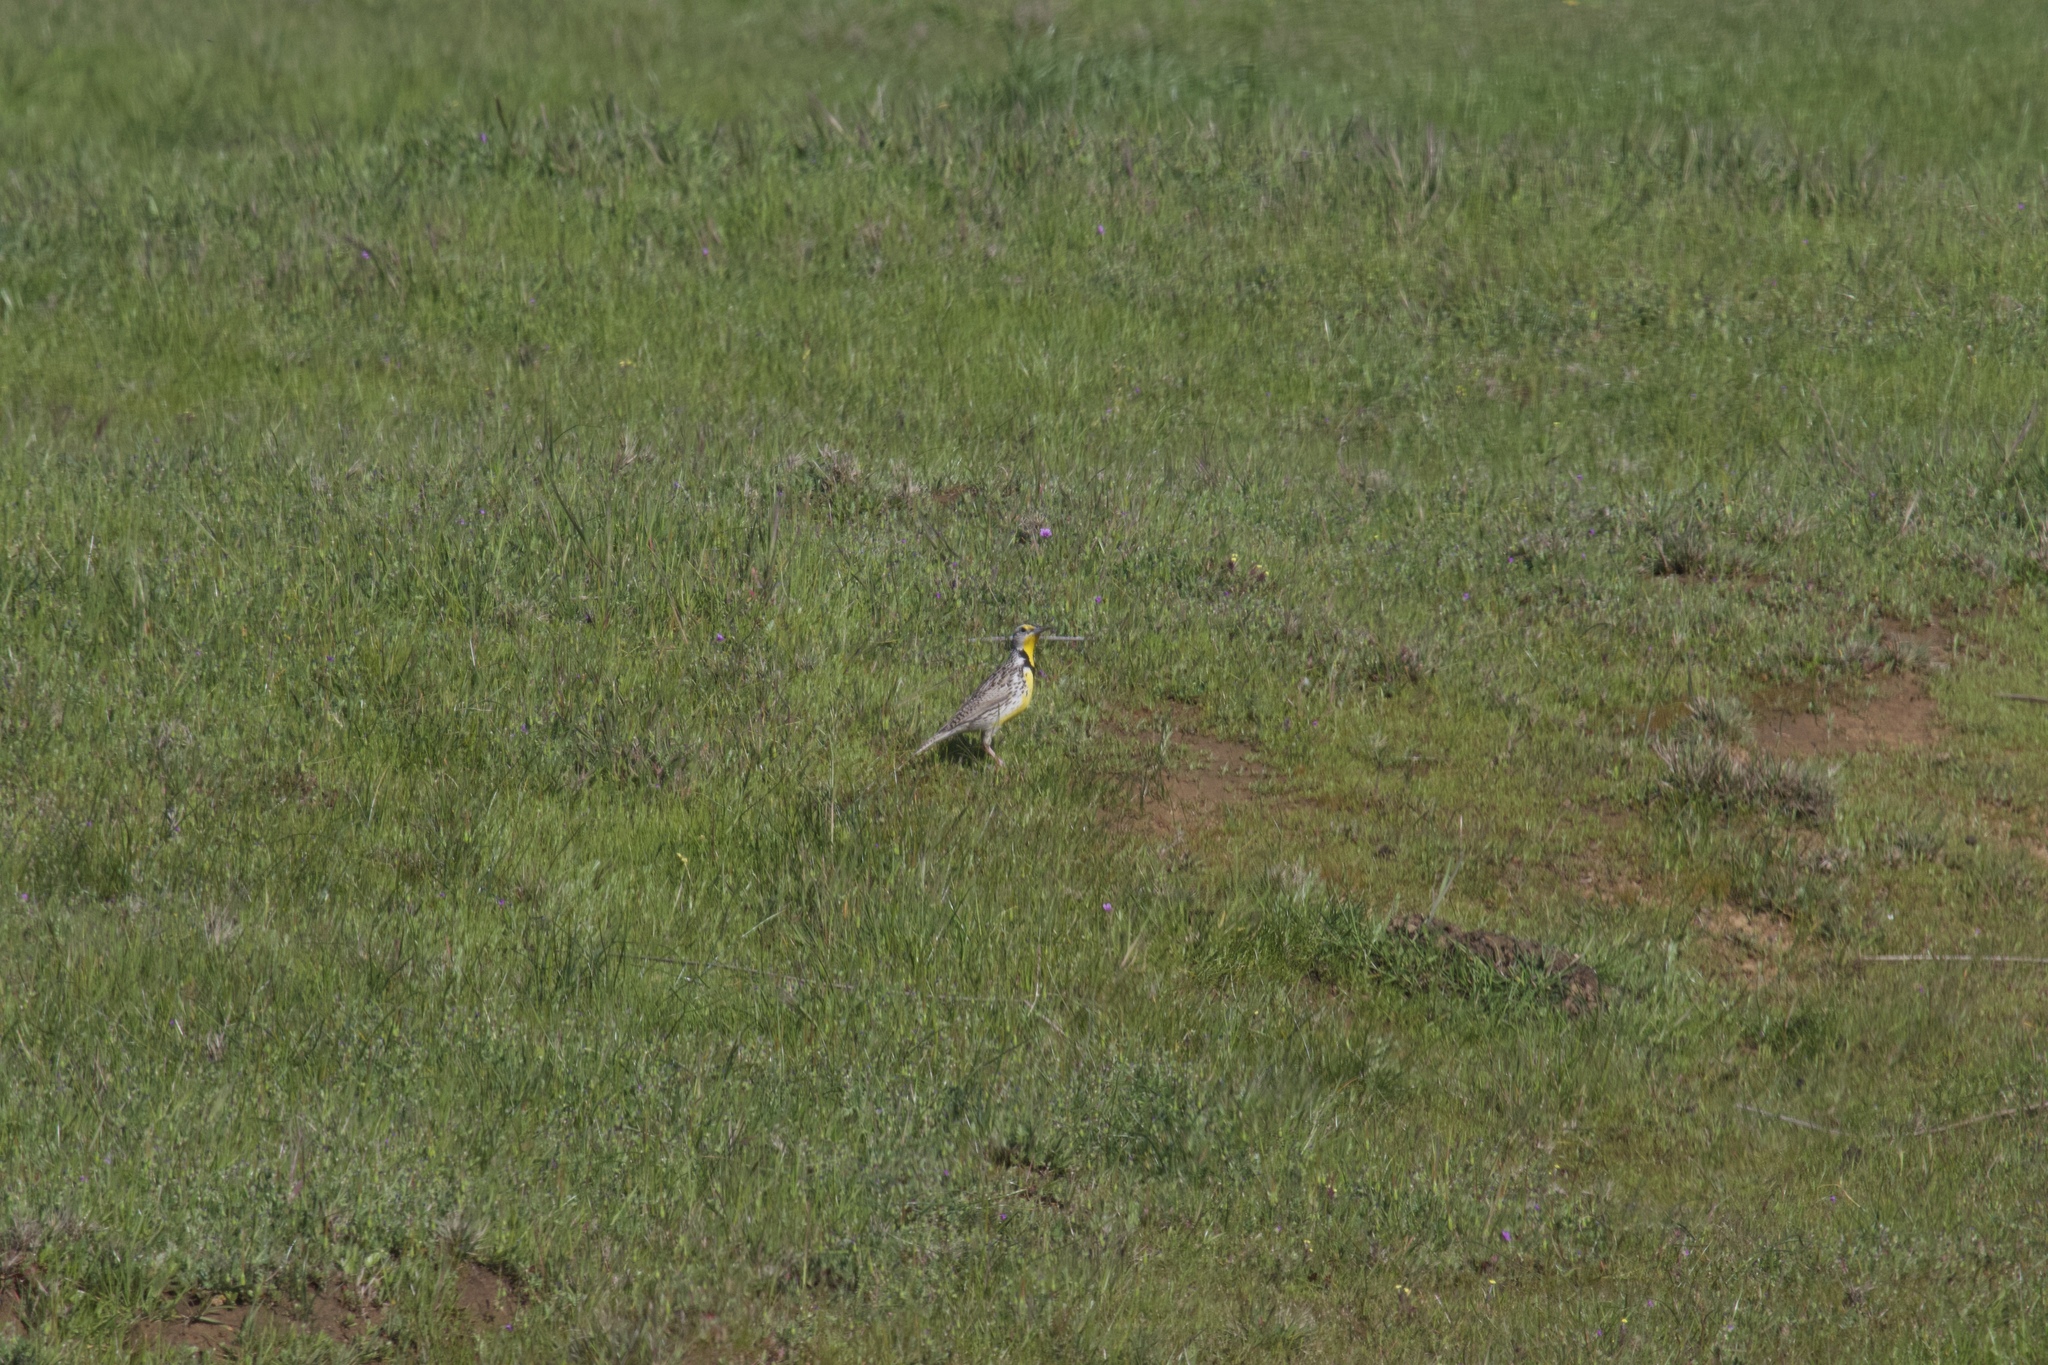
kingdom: Animalia
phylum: Chordata
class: Aves
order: Passeriformes
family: Icteridae
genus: Sturnella
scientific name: Sturnella neglecta
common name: Western meadowlark
